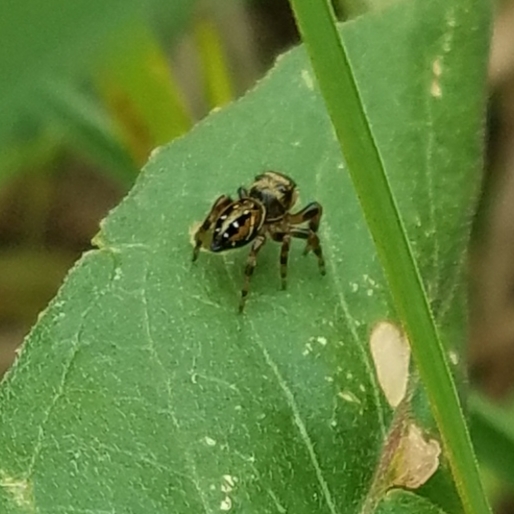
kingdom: Animalia
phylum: Arthropoda
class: Arachnida
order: Araneae
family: Salticidae
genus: Phidippus
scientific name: Phidippus clarus
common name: Brilliant jumping spider
